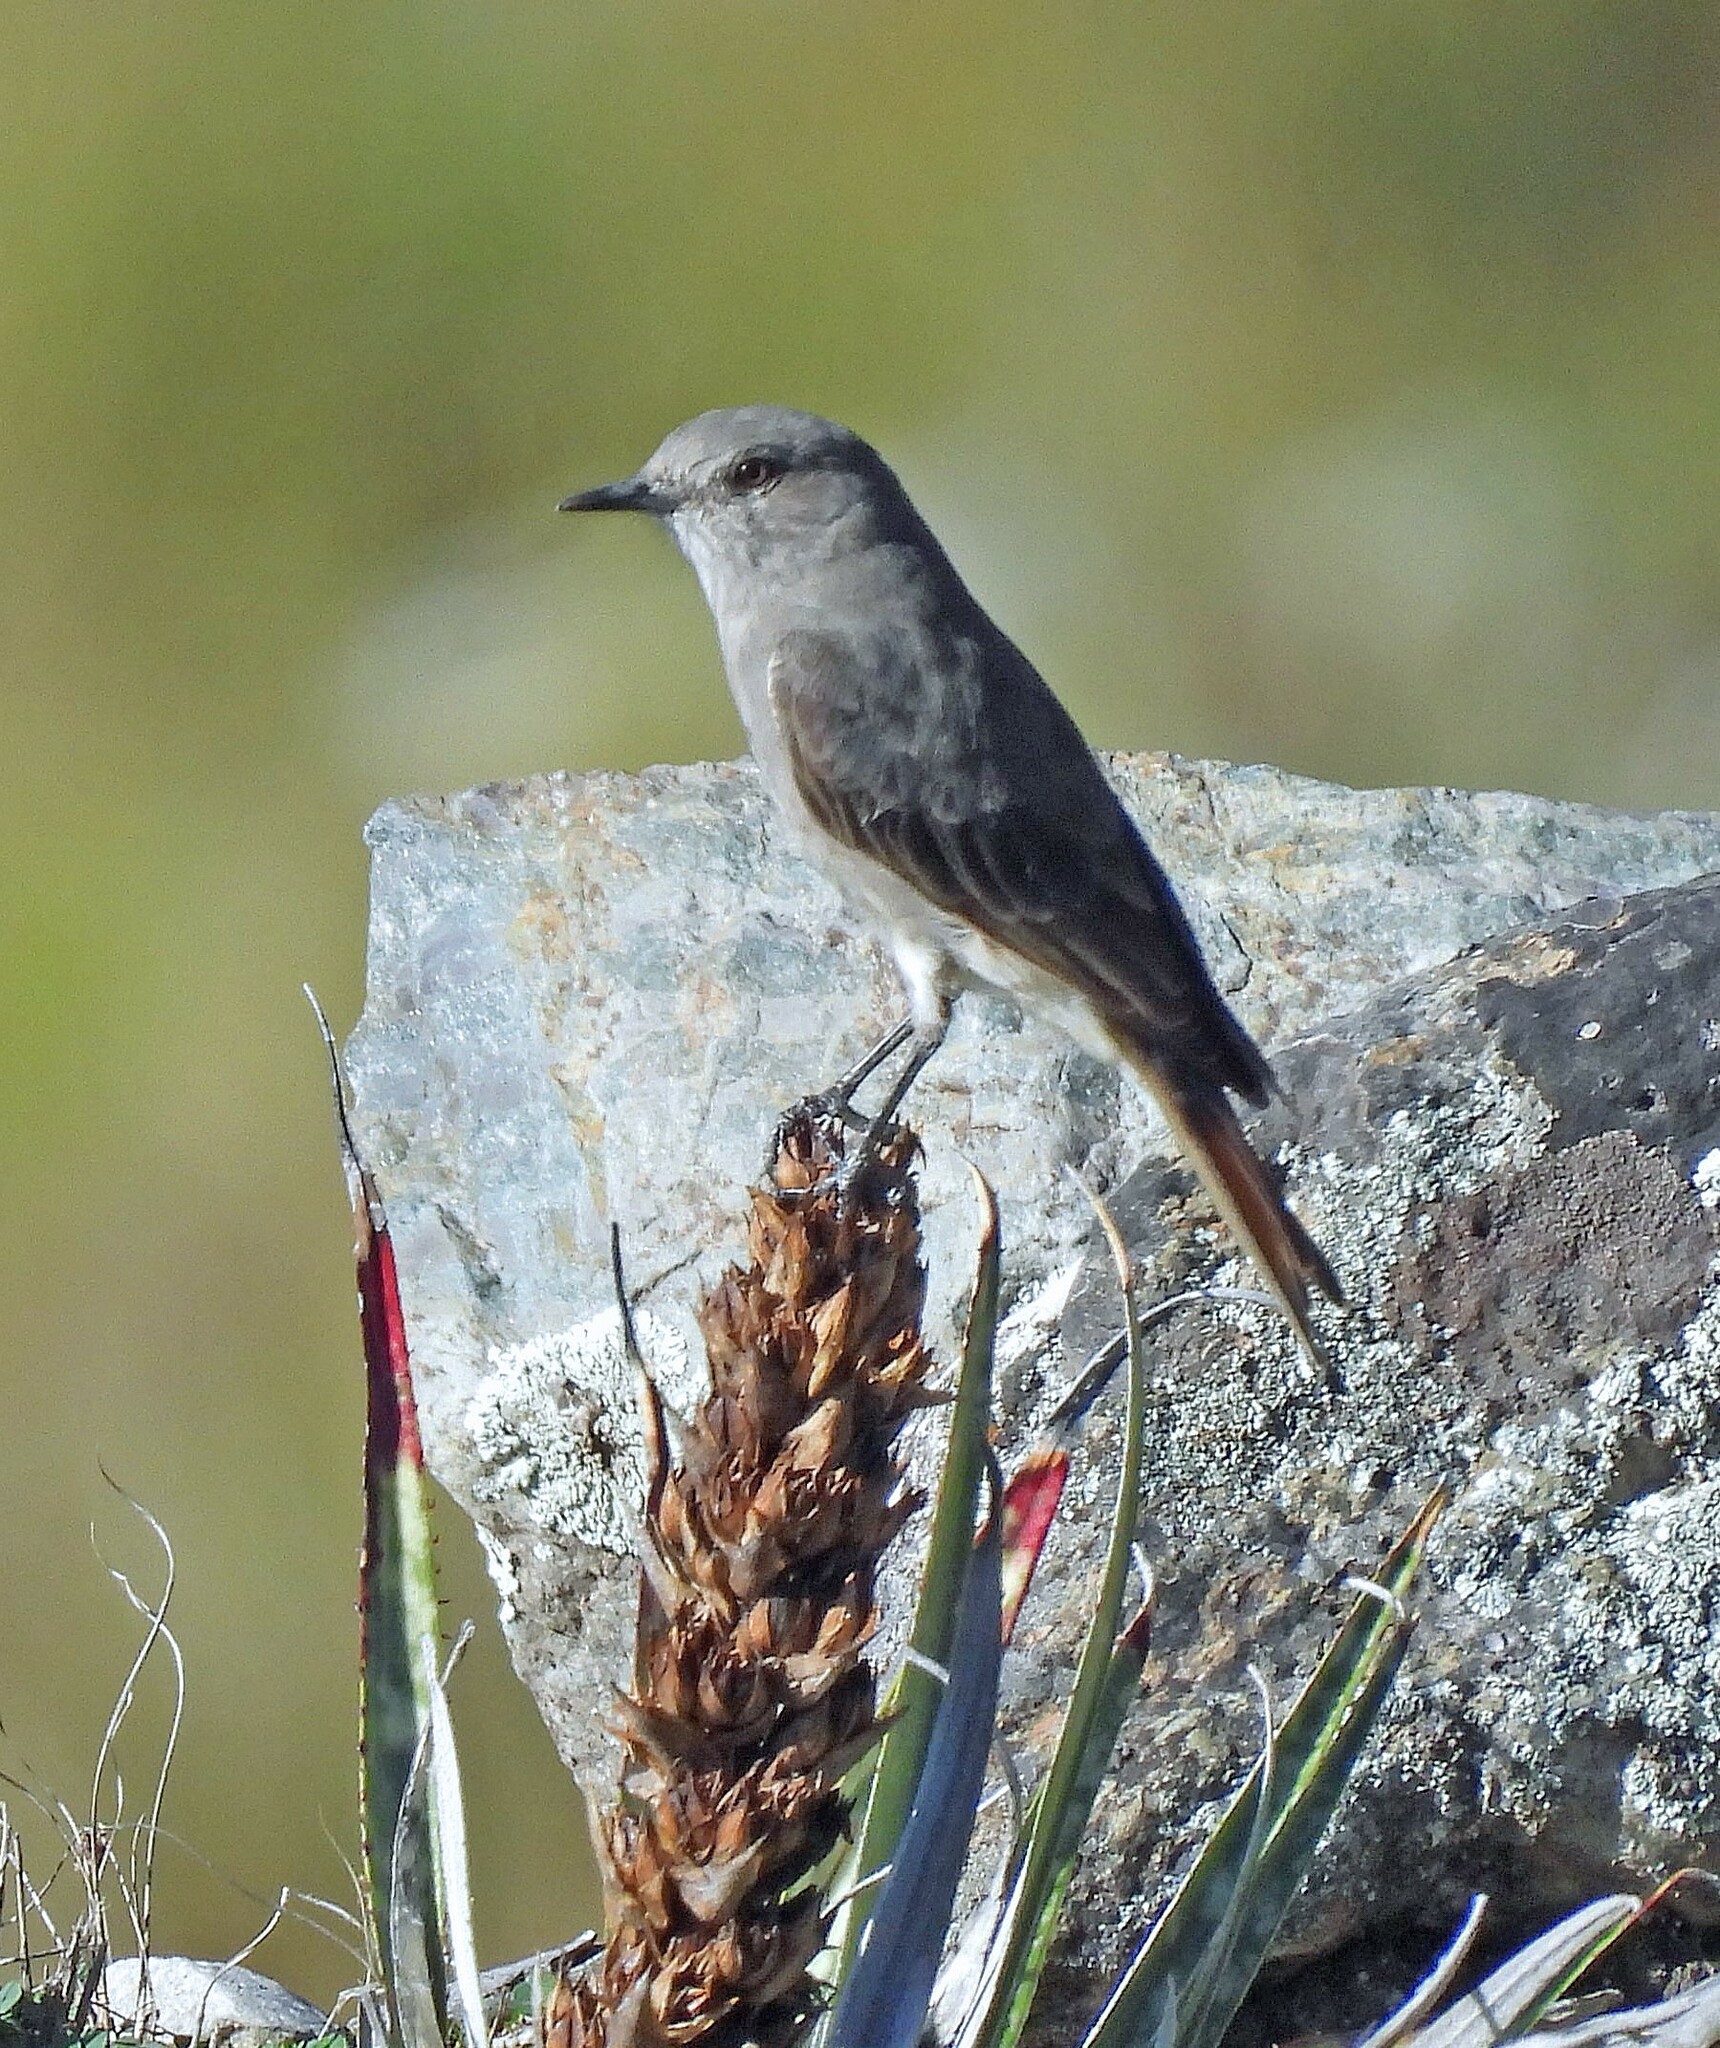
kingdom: Animalia
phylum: Chordata
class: Aves
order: Passeriformes
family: Tyrannidae
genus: Polioxolmis
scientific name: Polioxolmis rufipennis
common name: Rufous-webbed bush-tyrant
